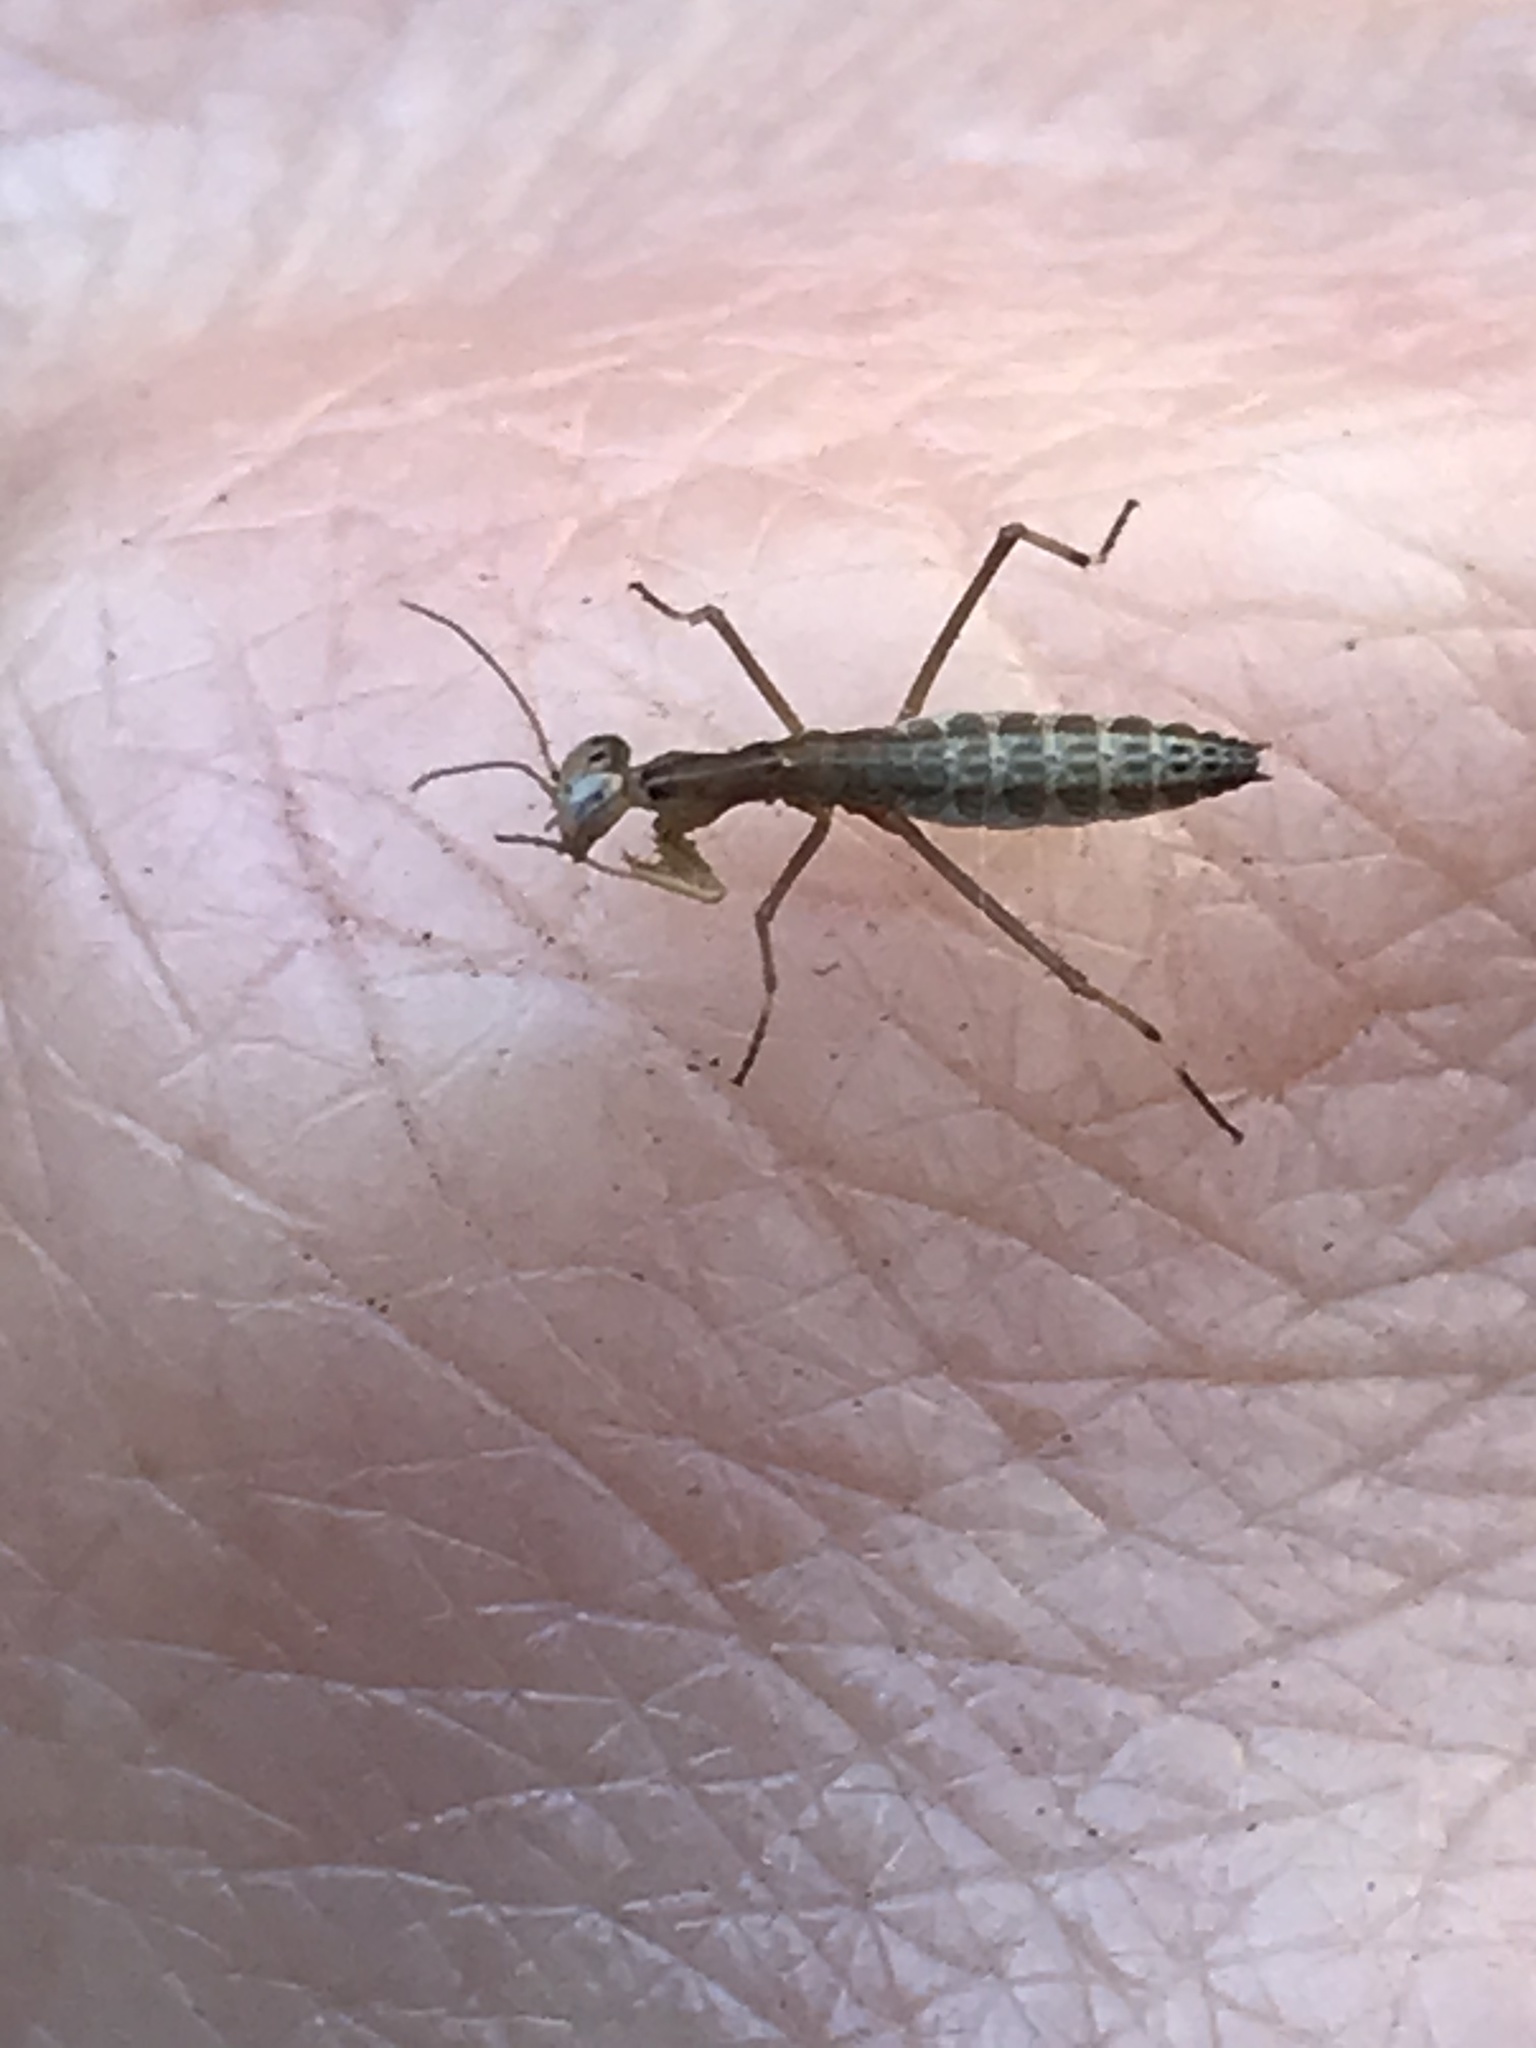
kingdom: Animalia
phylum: Arthropoda
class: Insecta
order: Mantodea
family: Mantidae
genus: Mantis
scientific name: Mantis religiosa
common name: Praying mantis
